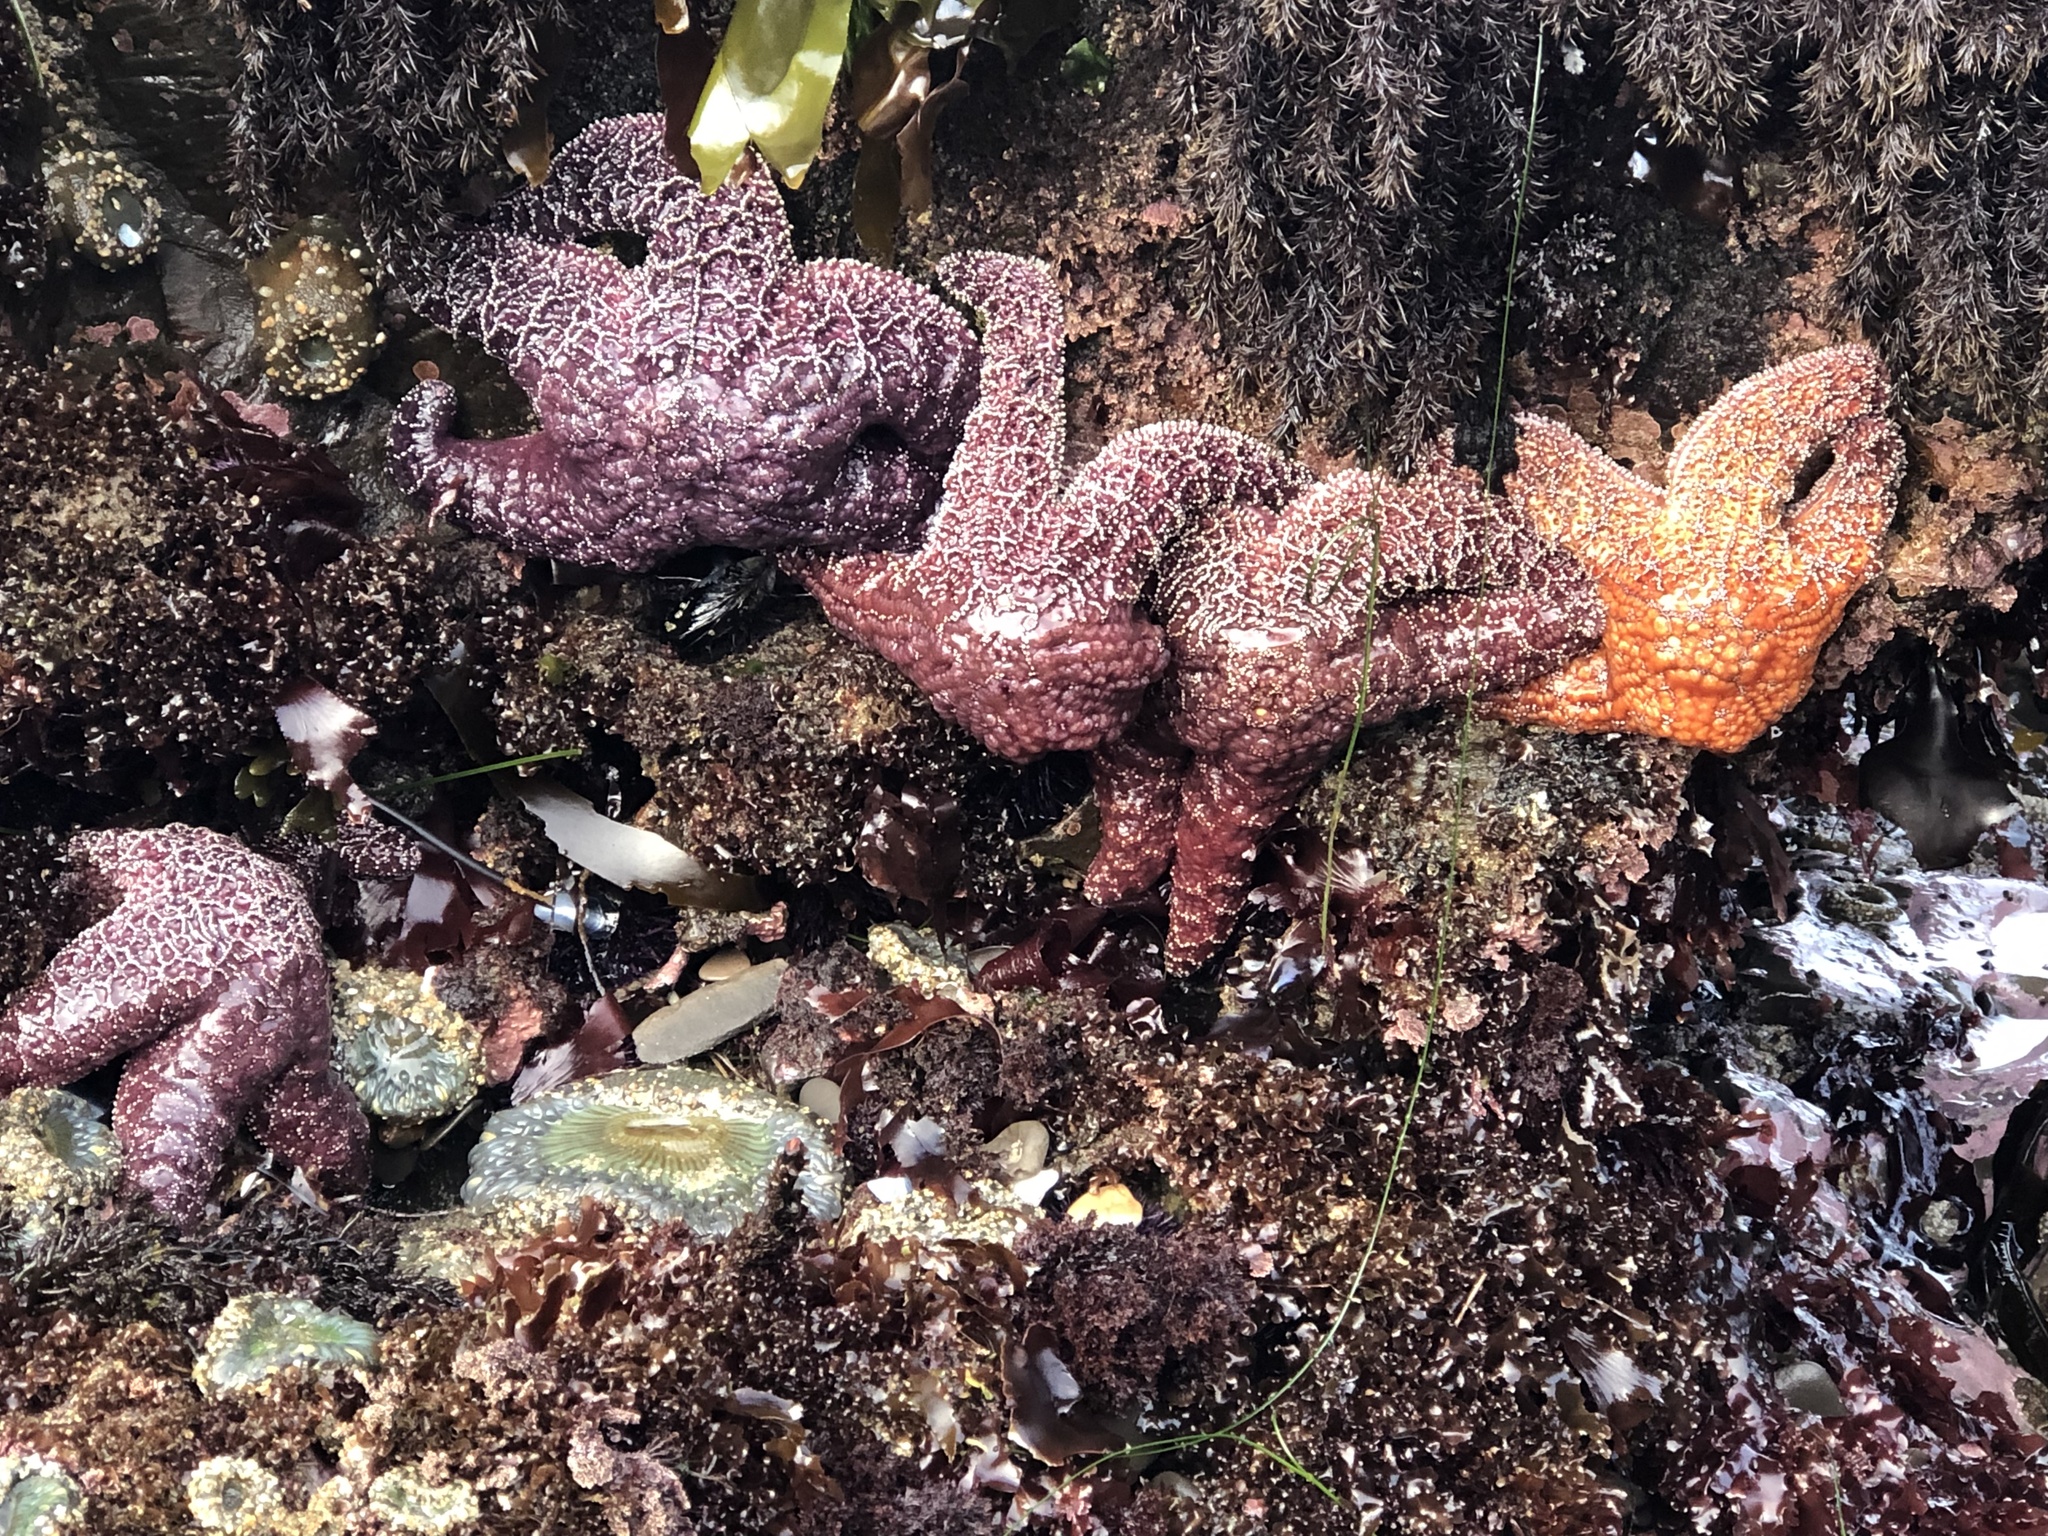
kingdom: Animalia
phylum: Echinodermata
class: Asteroidea
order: Forcipulatida
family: Asteriidae
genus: Pisaster
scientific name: Pisaster ochraceus
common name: Ochre stars
